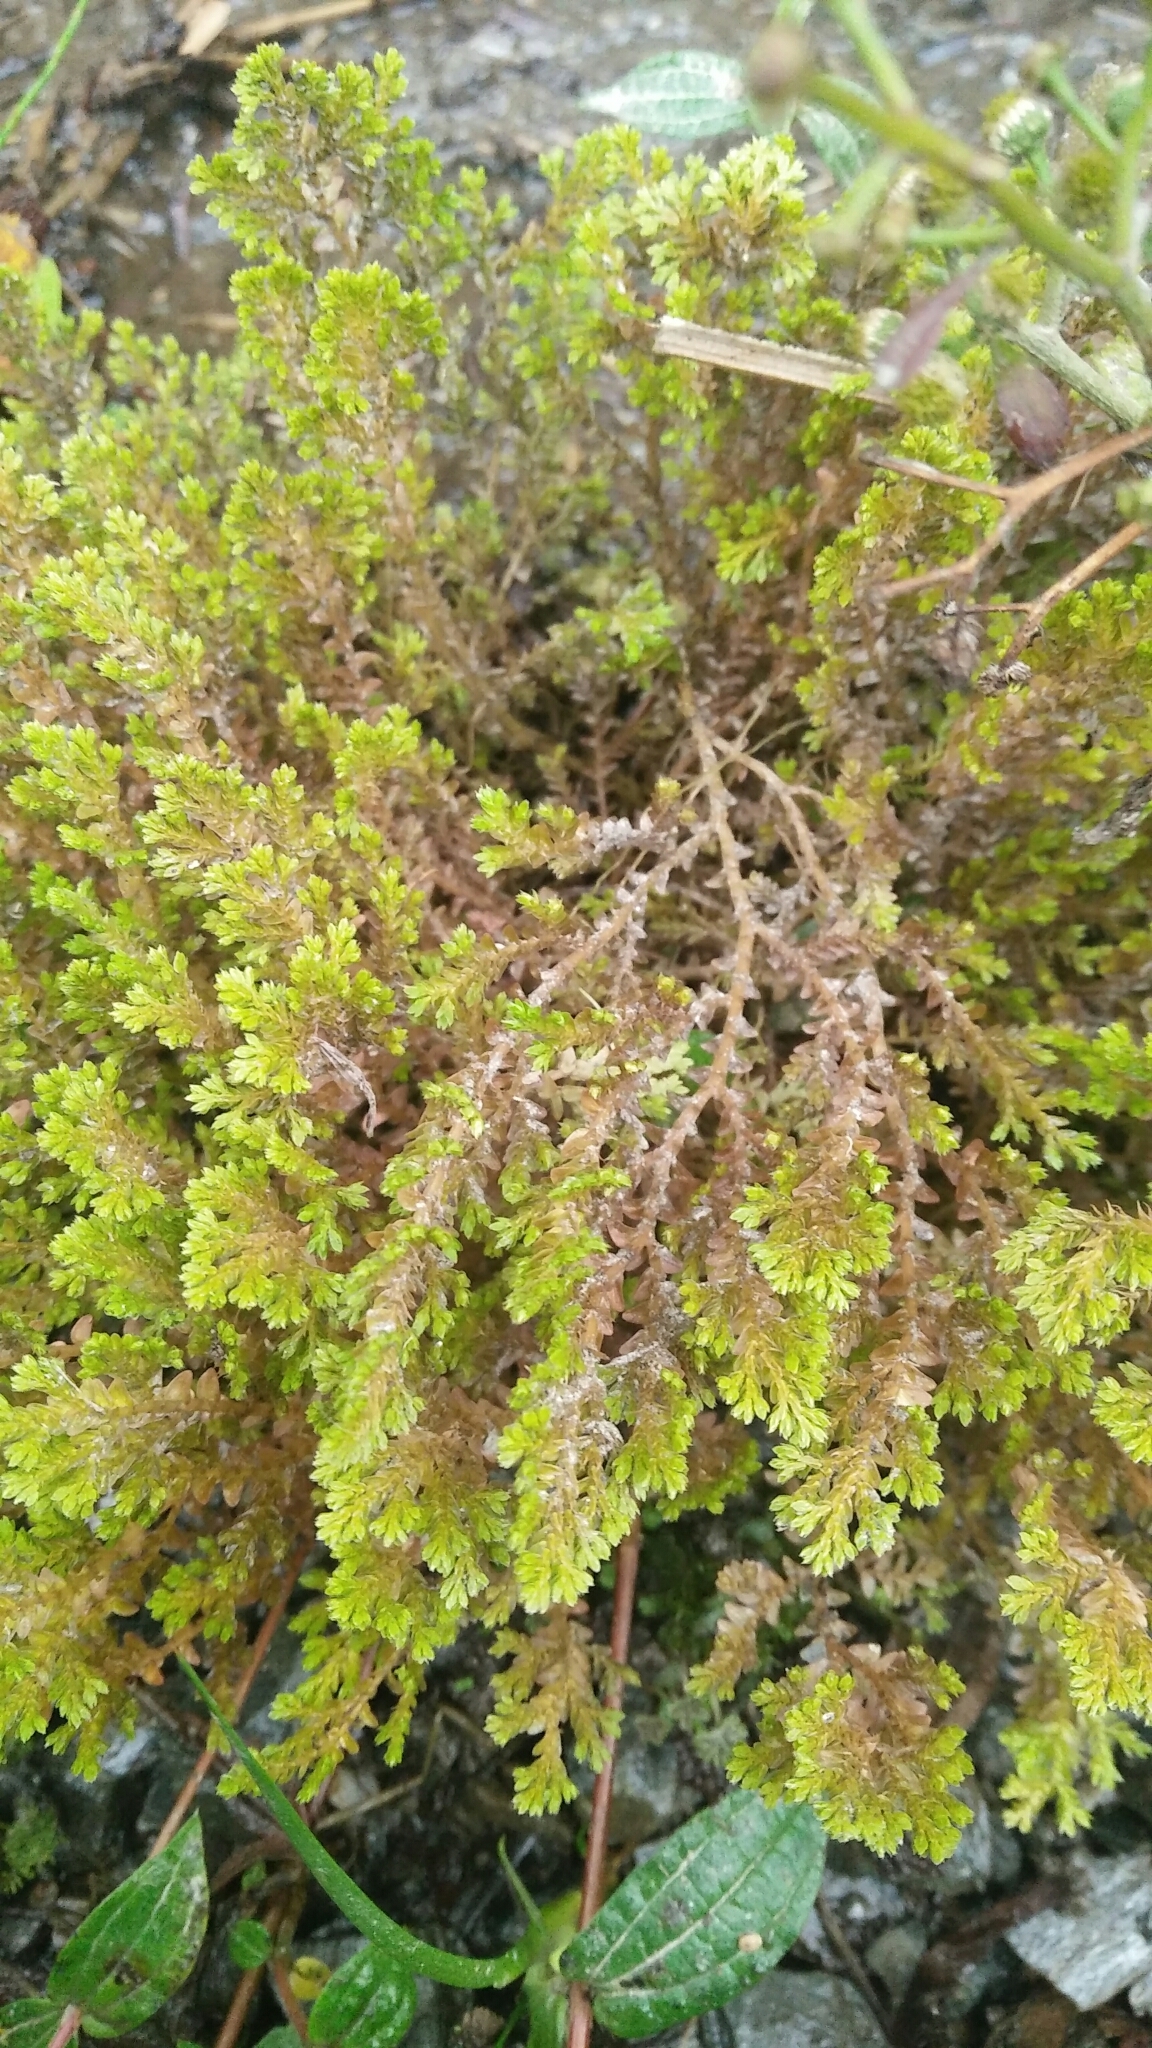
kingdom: Plantae
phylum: Tracheophyta
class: Lycopodiopsida
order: Selaginellales
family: Selaginellaceae
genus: Selaginella
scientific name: Selaginella aristata
